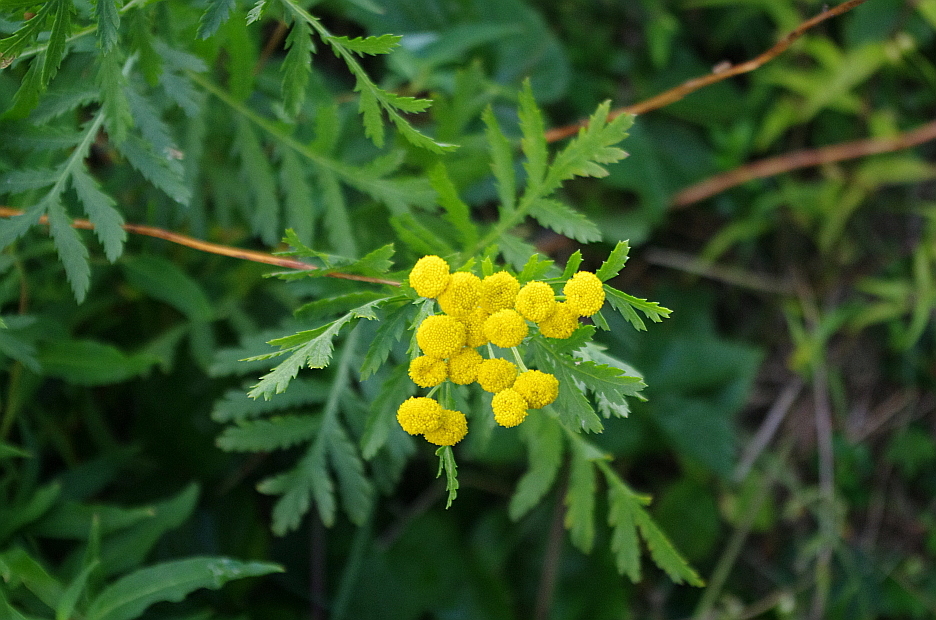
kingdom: Plantae
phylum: Tracheophyta
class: Magnoliopsida
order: Asterales
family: Asteraceae
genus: Tanacetum
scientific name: Tanacetum vulgare
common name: Common tansy
